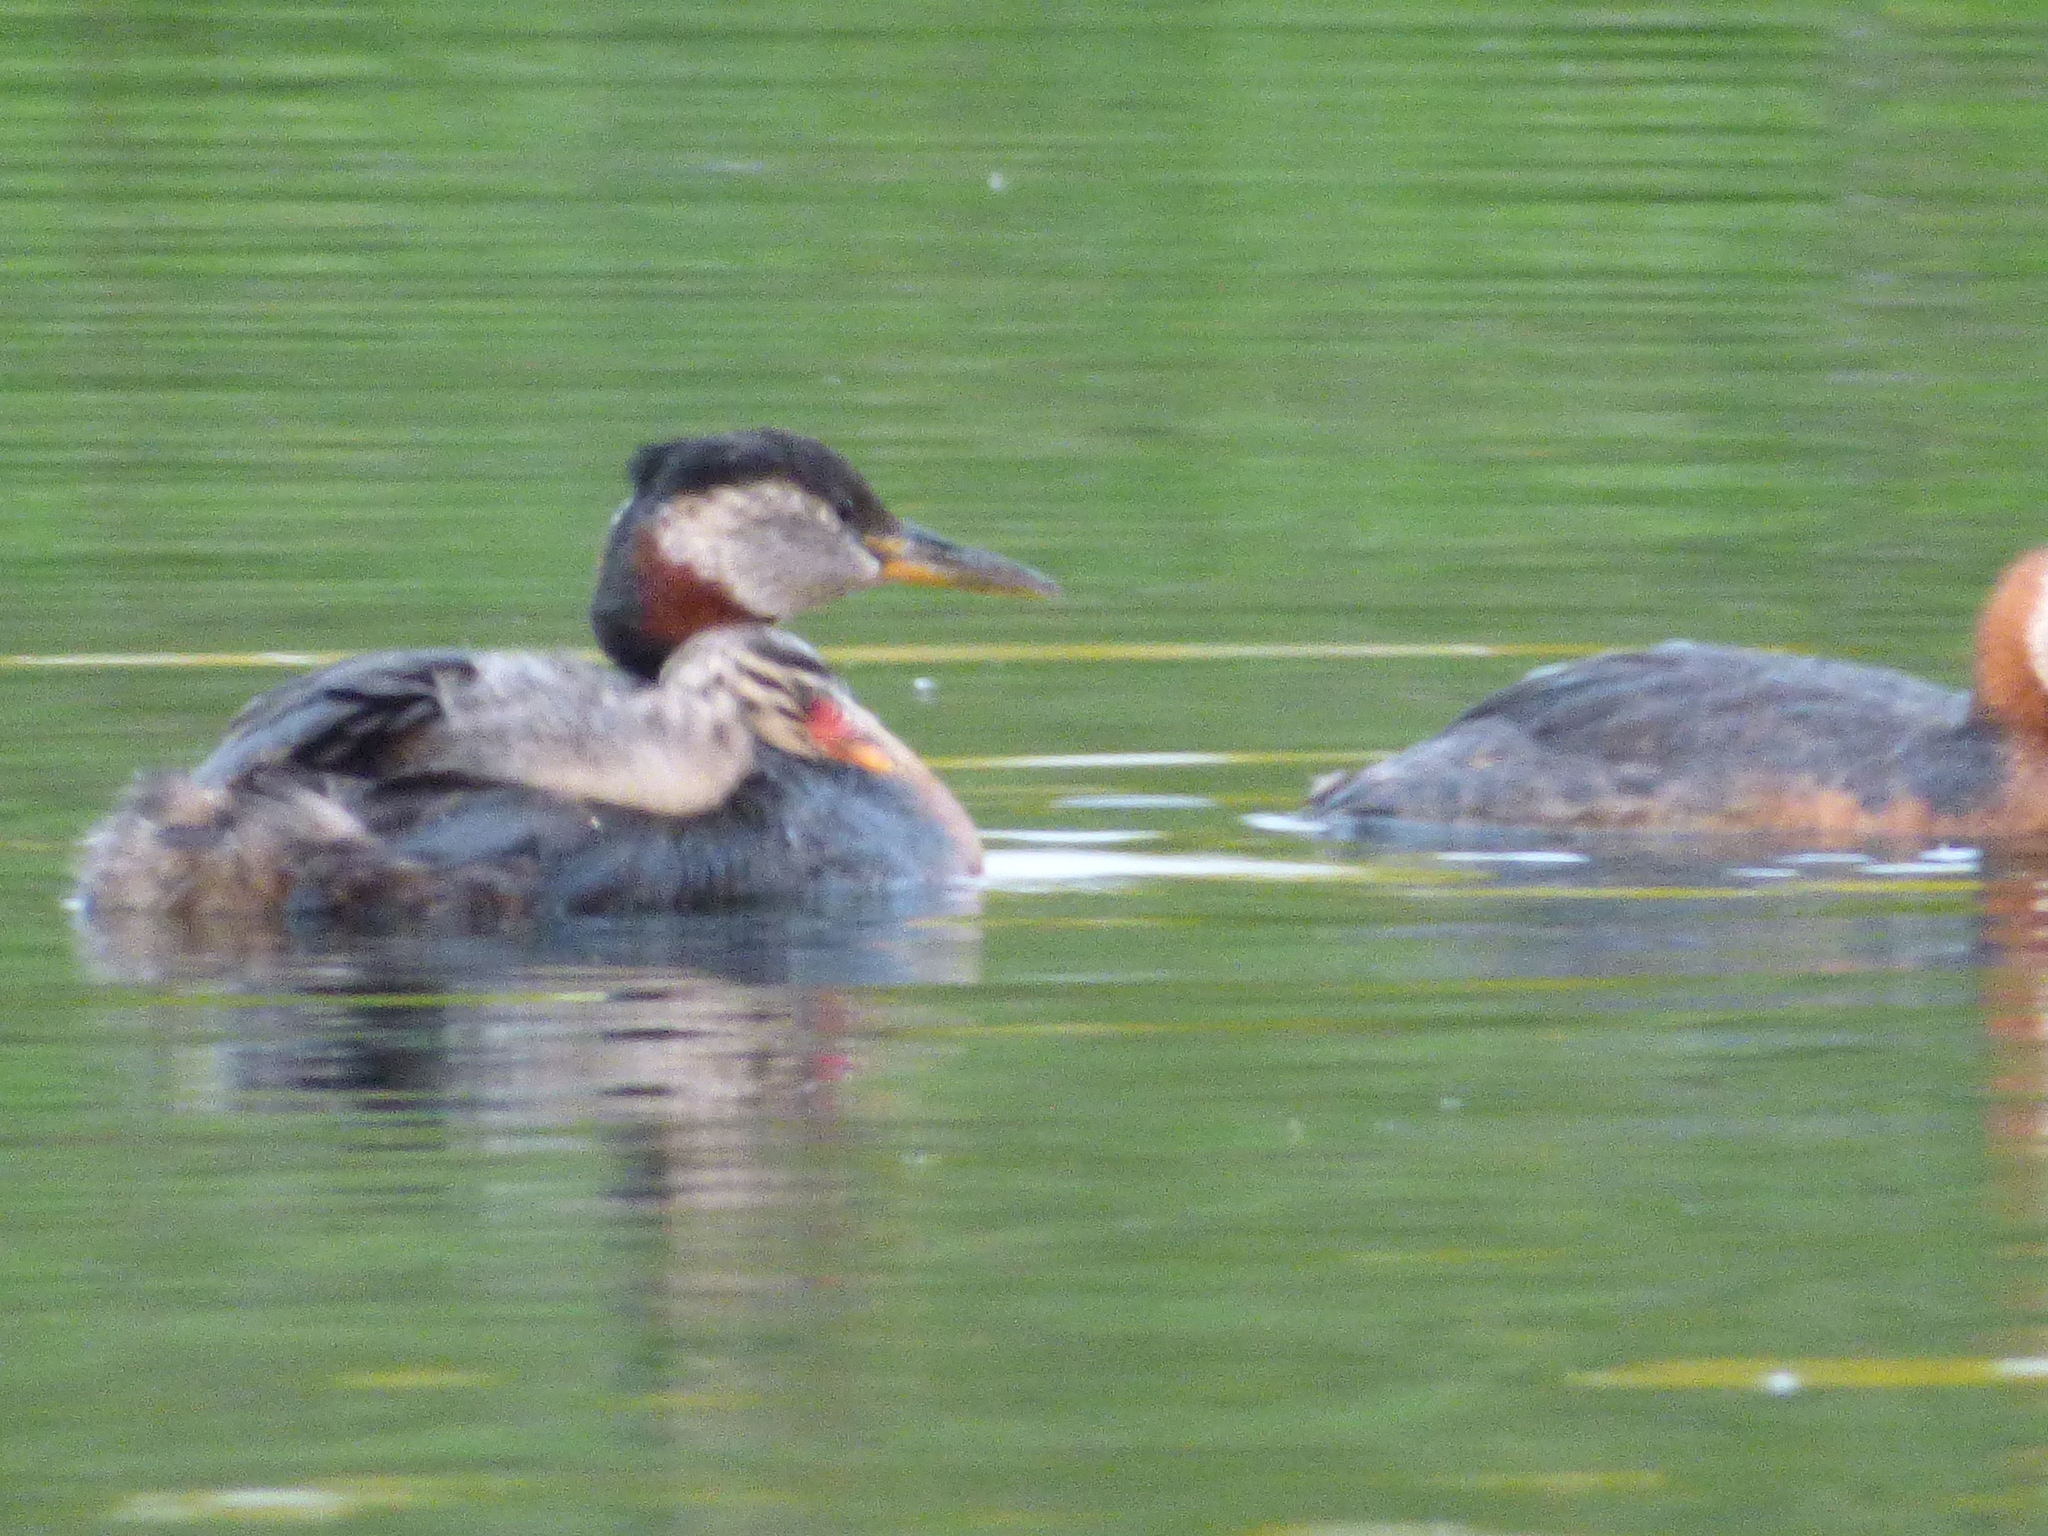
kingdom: Animalia
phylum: Chordata
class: Aves
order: Podicipediformes
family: Podicipedidae
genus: Podiceps
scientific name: Podiceps grisegena
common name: Red-necked grebe
